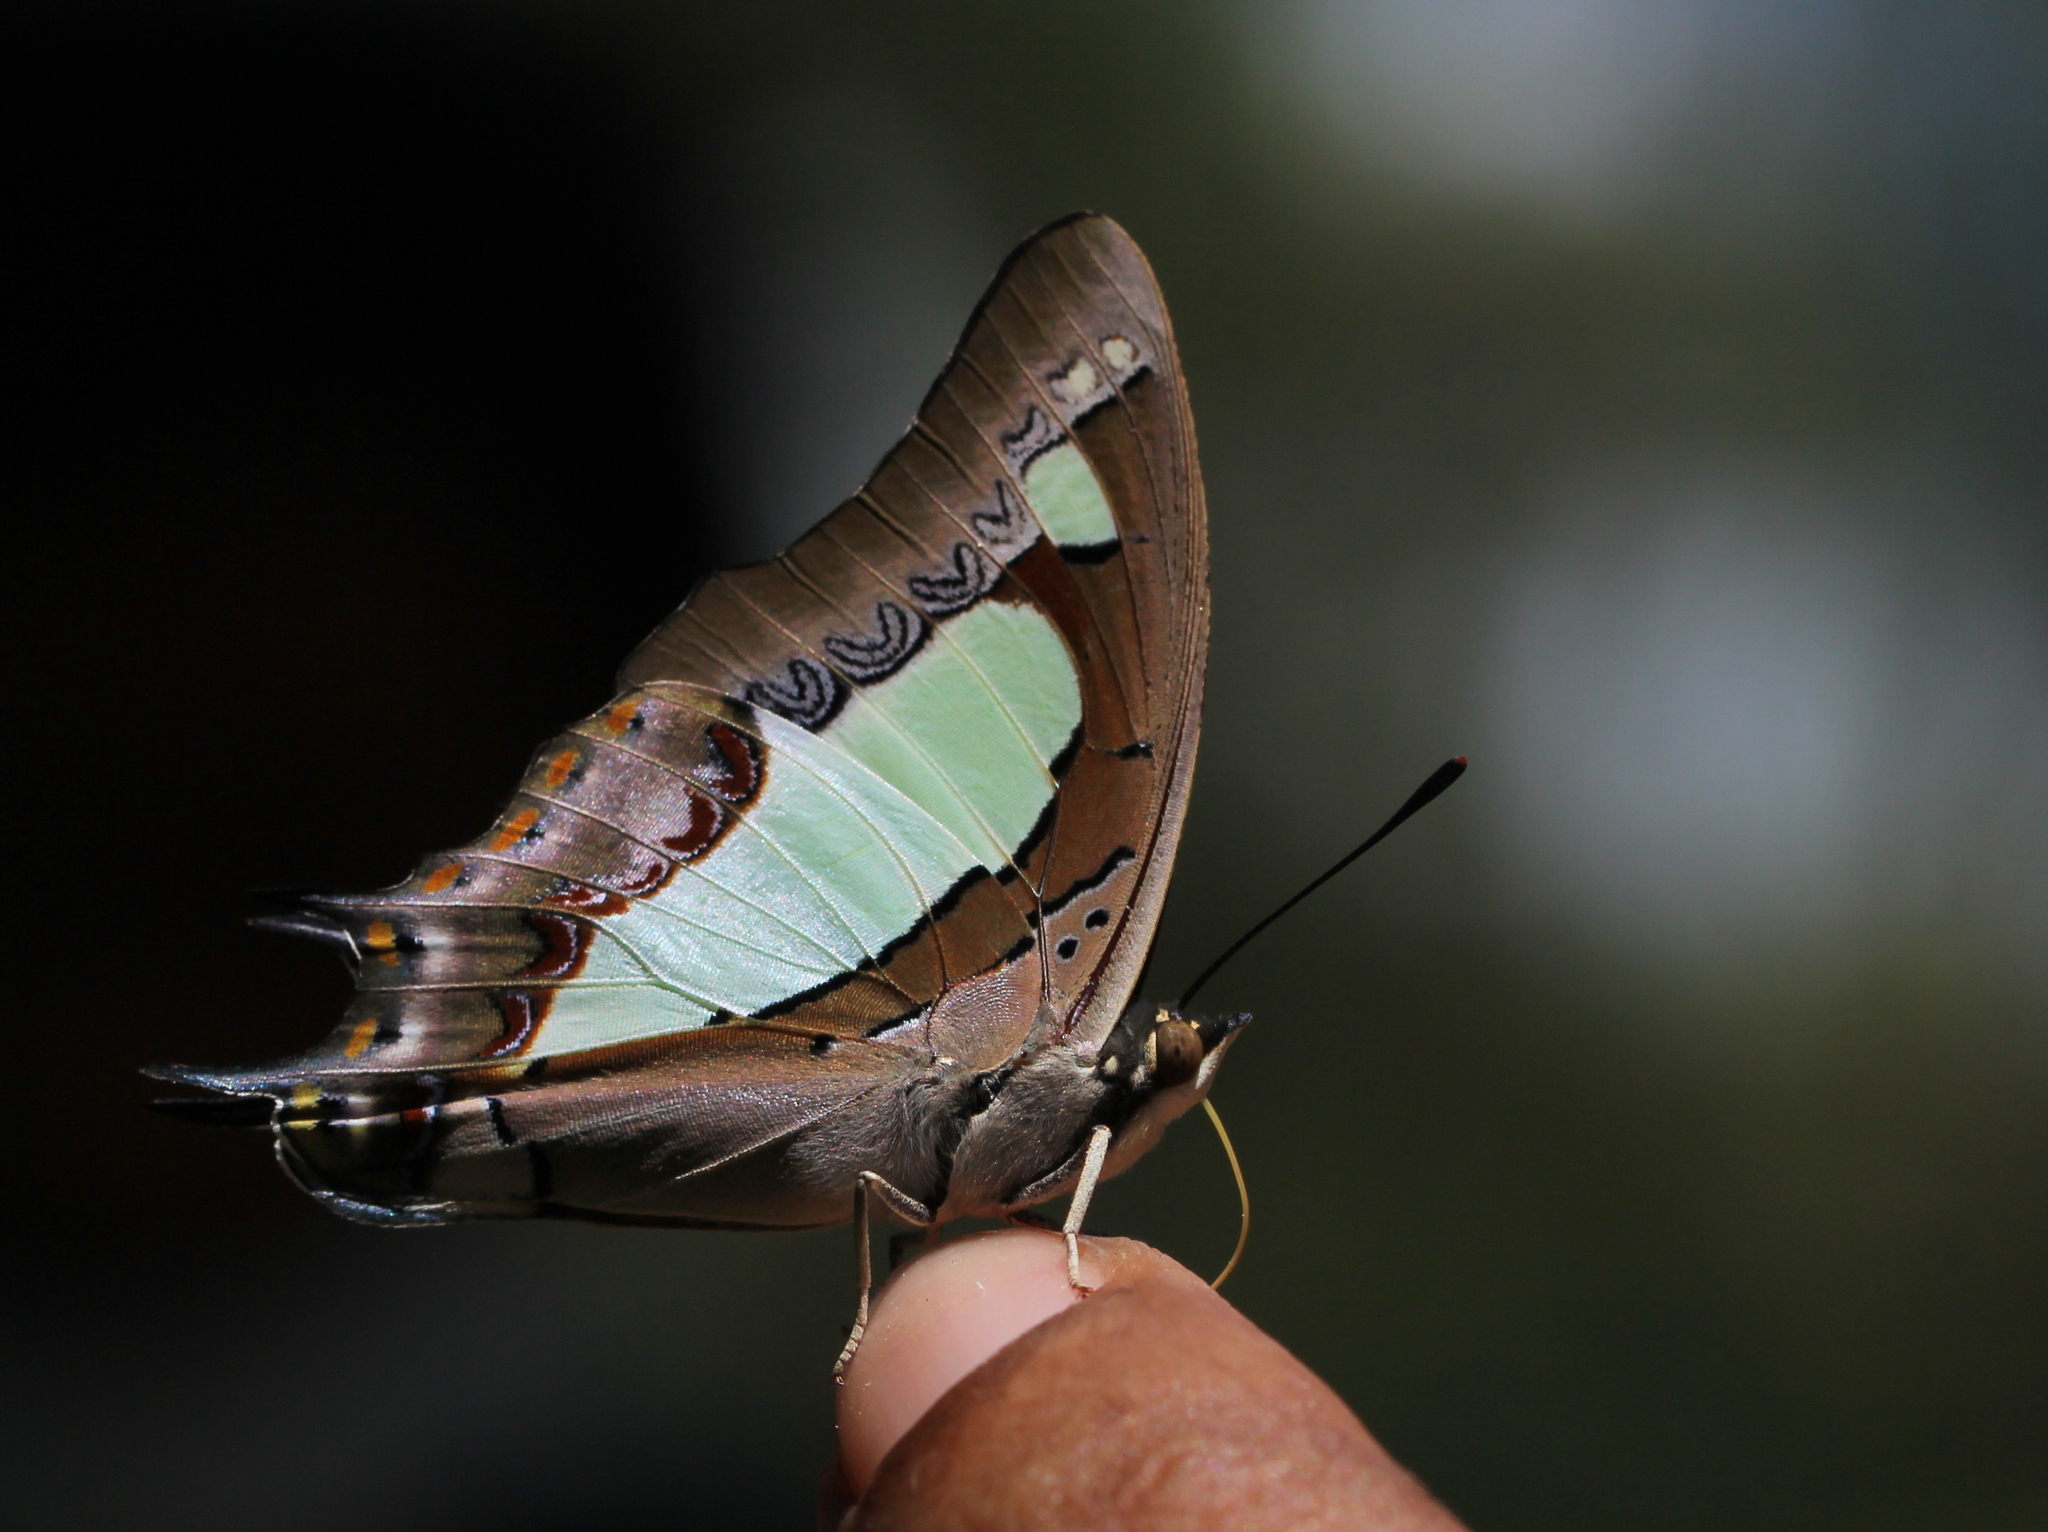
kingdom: Animalia
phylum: Arthropoda
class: Insecta
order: Lepidoptera
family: Nymphalidae
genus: Polyura
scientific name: Polyura agrarius
